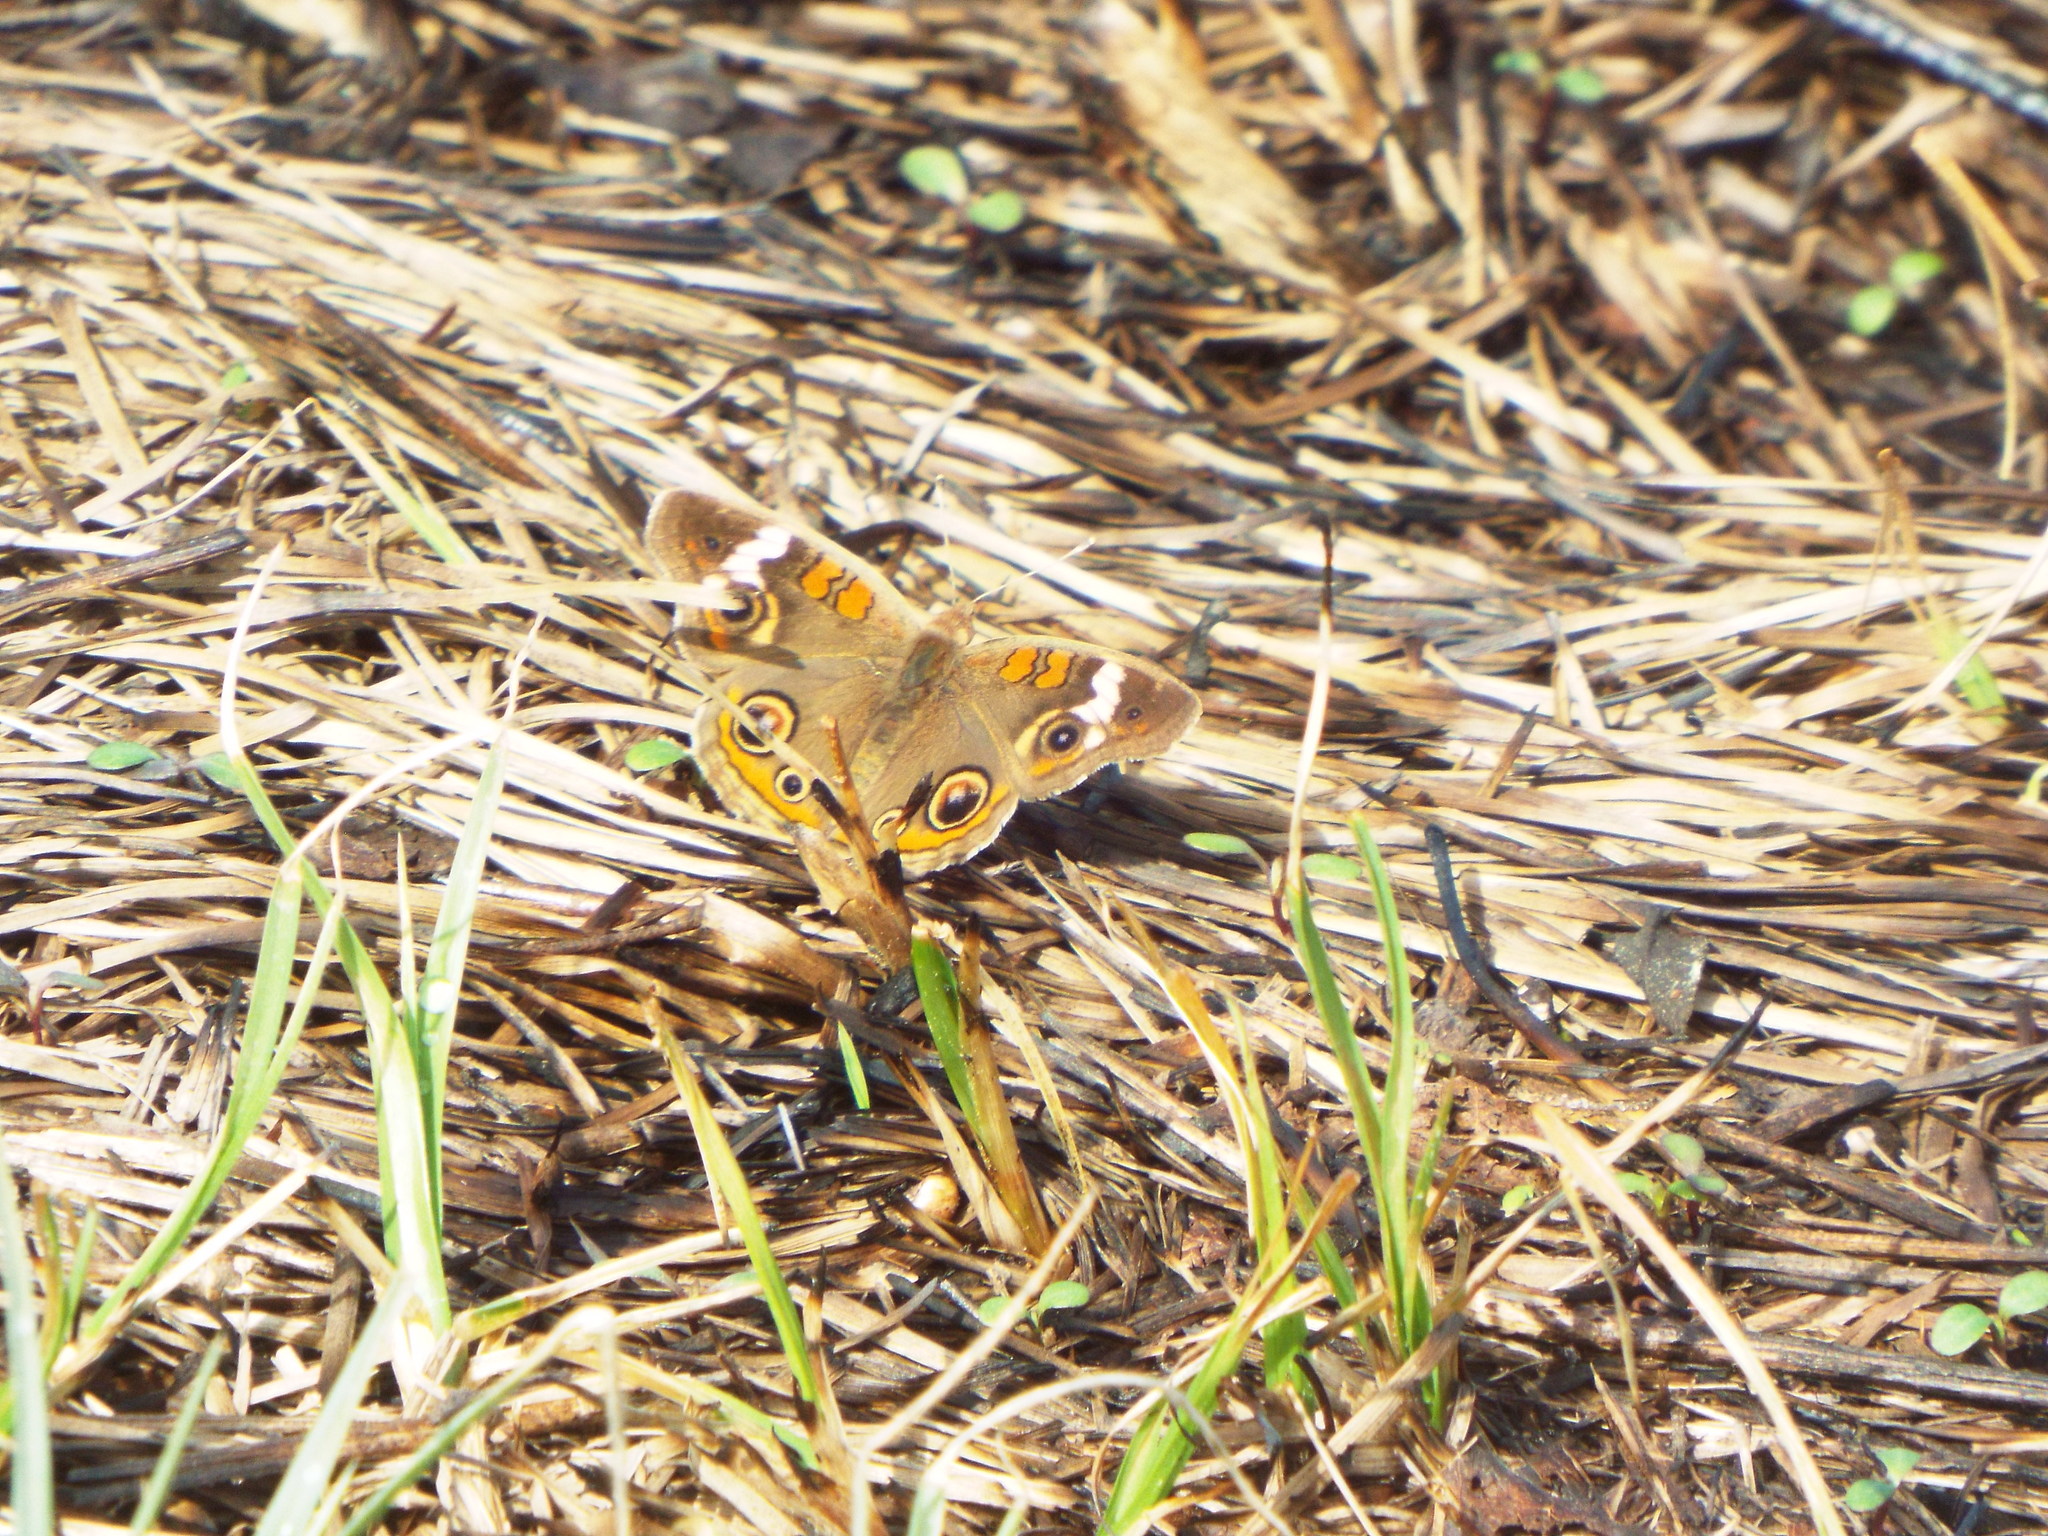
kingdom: Animalia
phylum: Arthropoda
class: Insecta
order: Lepidoptera
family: Nymphalidae
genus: Junonia
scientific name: Junonia coenia
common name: Common buckeye
